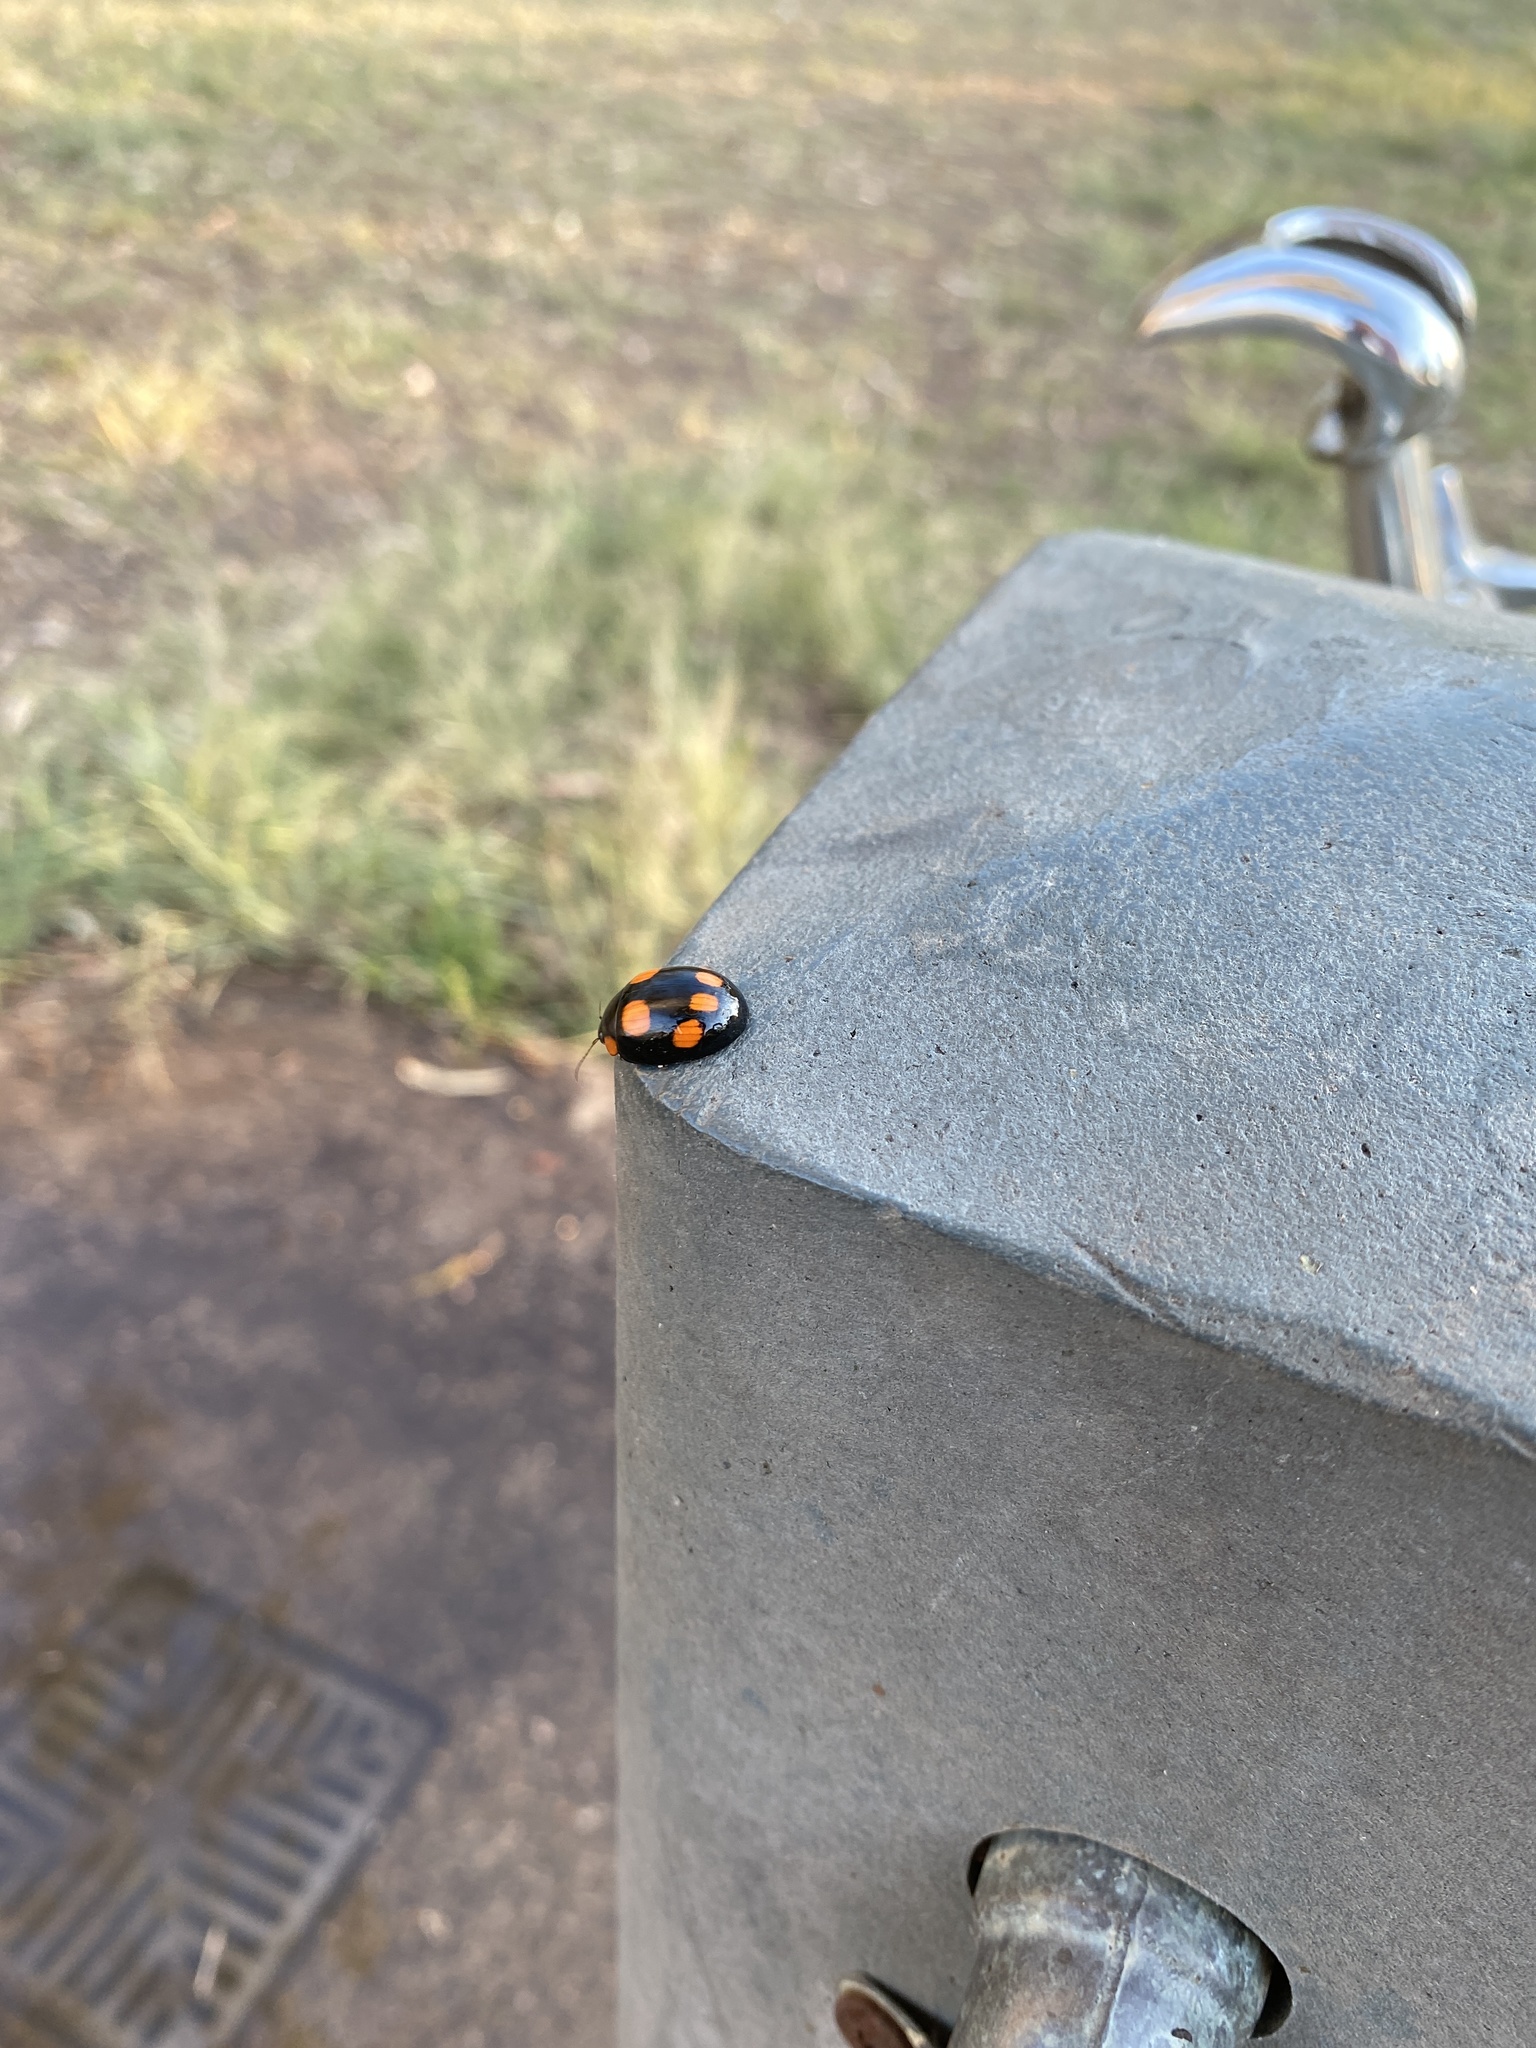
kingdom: Animalia
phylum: Arthropoda
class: Insecta
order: Coleoptera
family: Chrysomelidae
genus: Paropsisterna
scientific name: Paropsisterna
